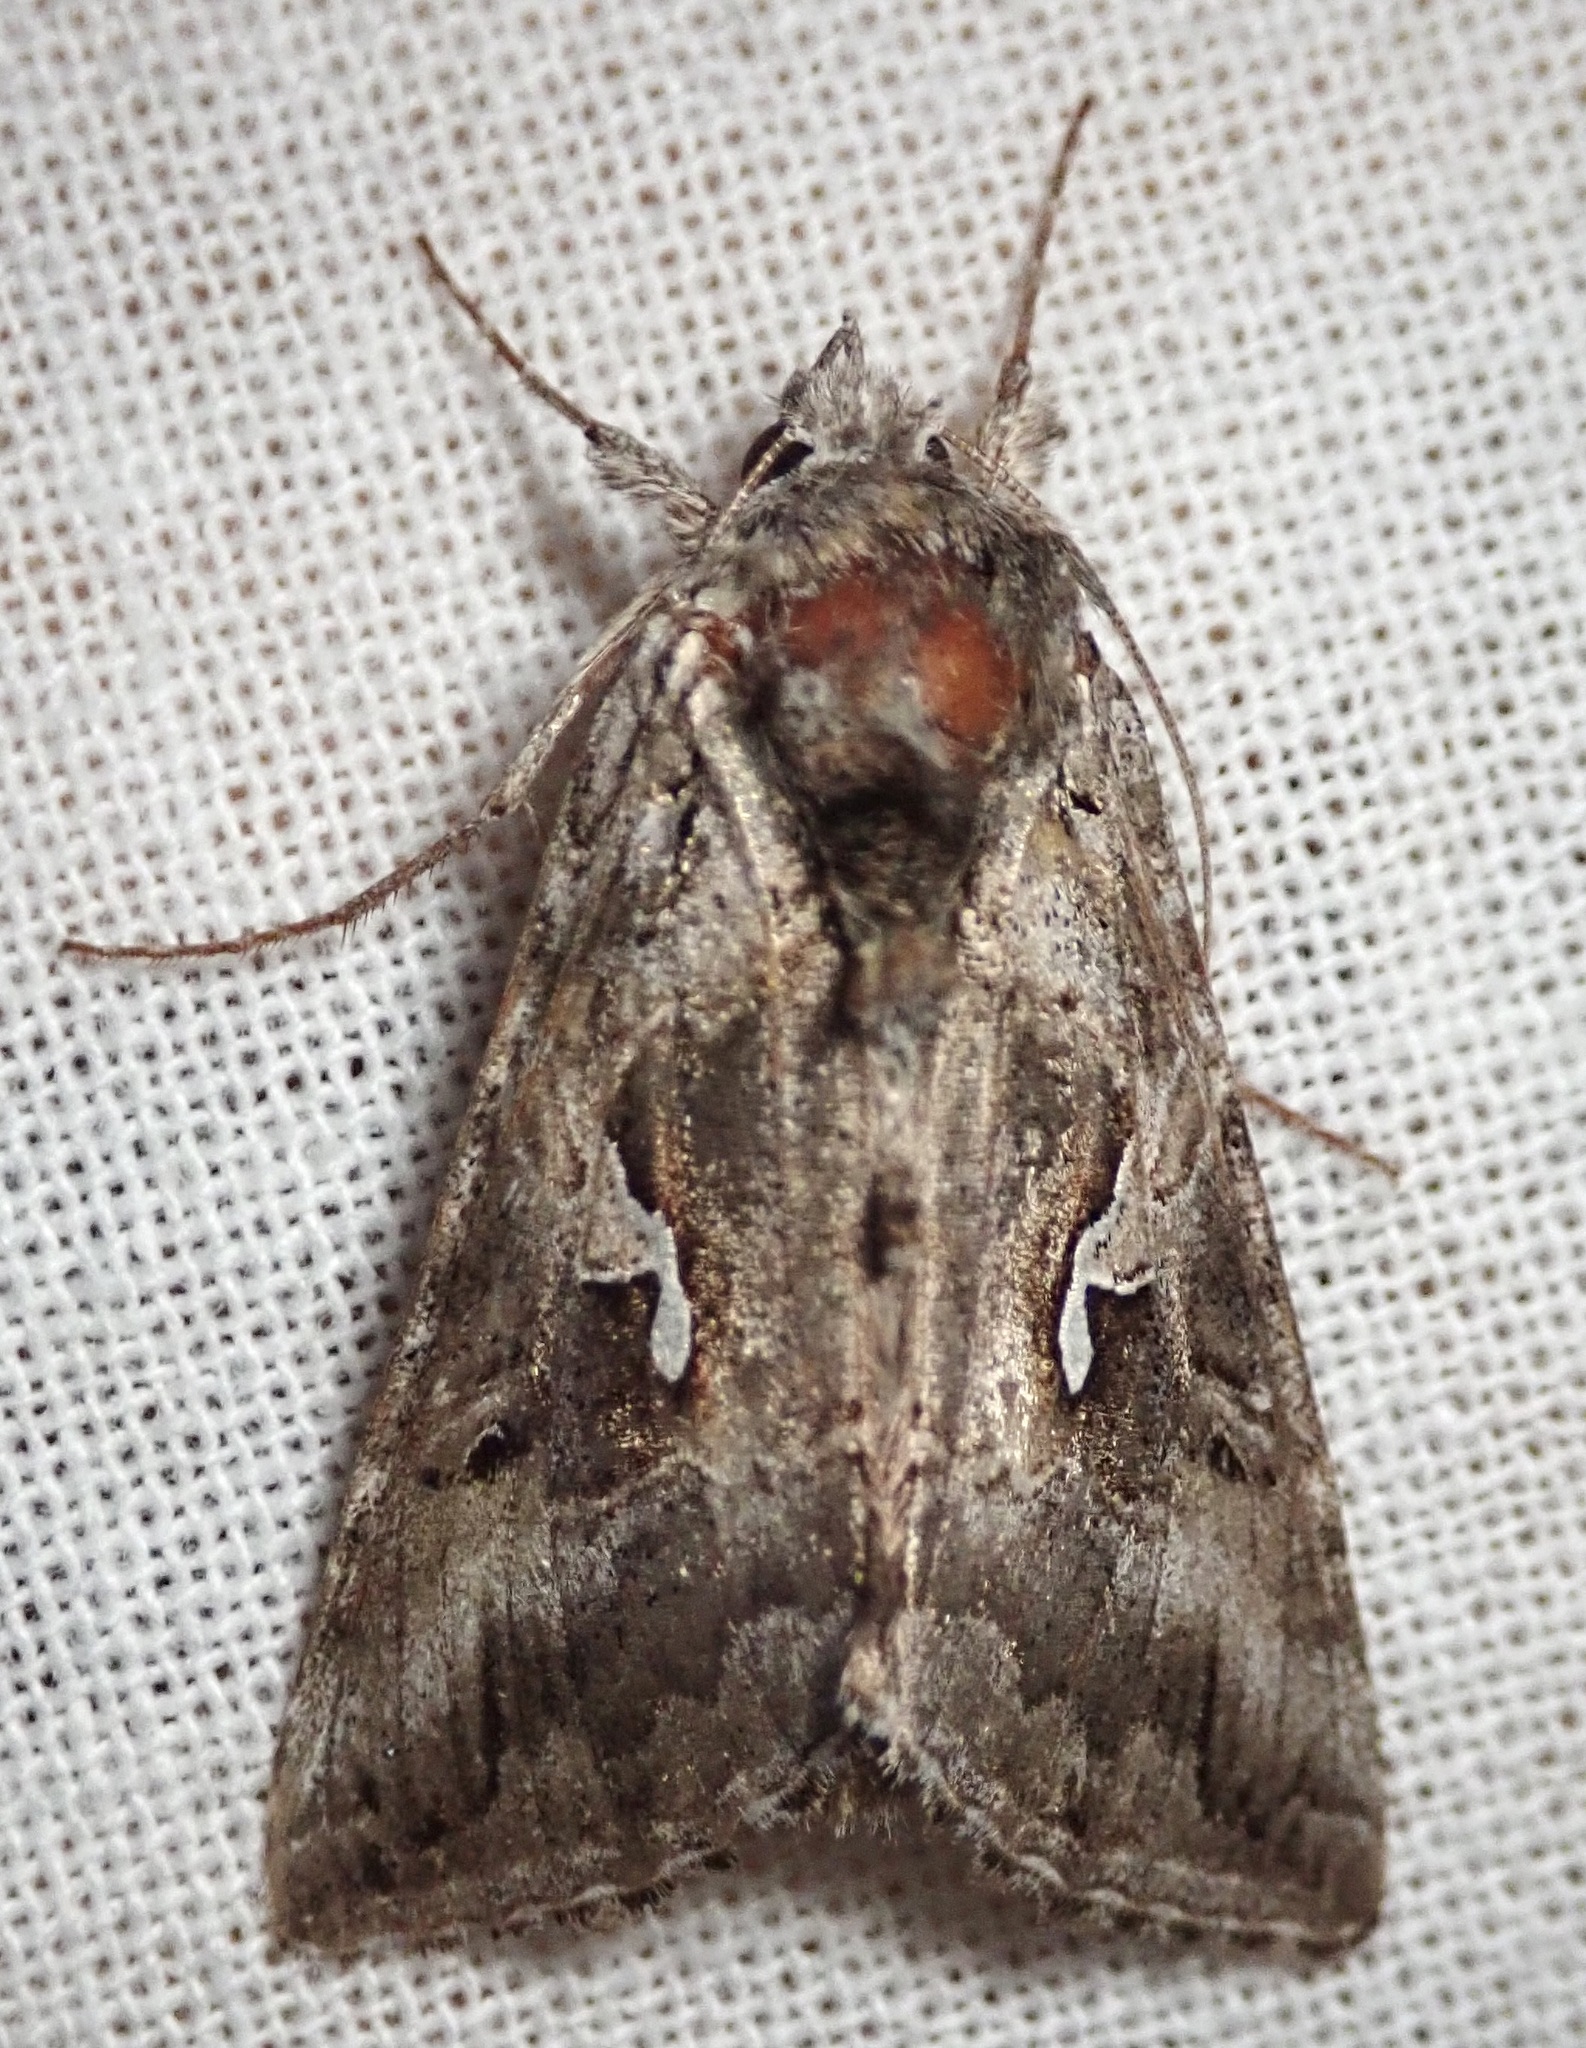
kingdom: Animalia
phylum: Arthropoda
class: Insecta
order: Lepidoptera
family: Noctuidae
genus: Autographa
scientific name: Autographa californica
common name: Alfalfa looper
